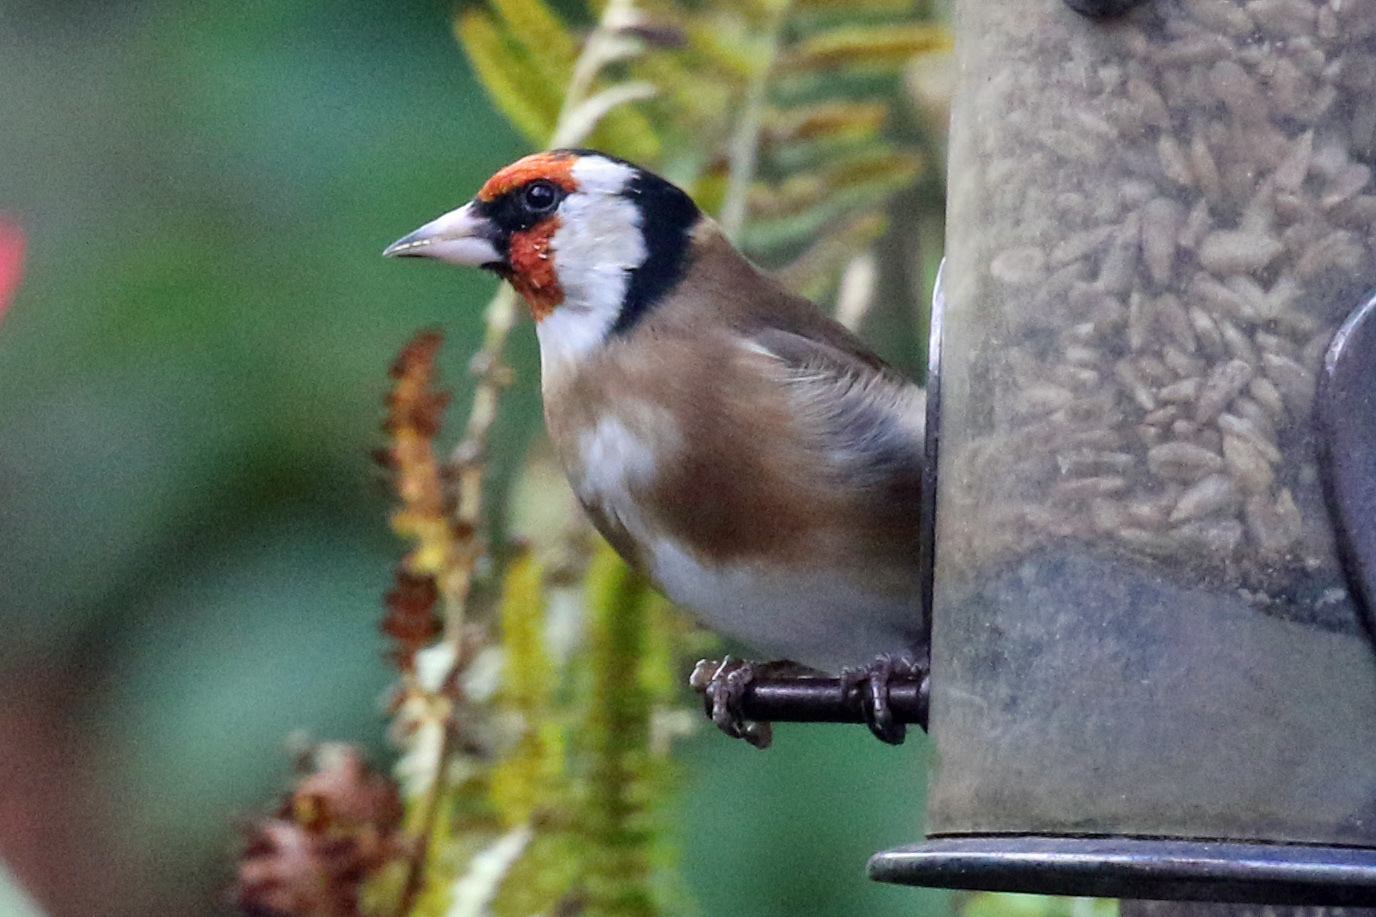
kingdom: Animalia
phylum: Chordata
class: Aves
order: Passeriformes
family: Fringillidae
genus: Carduelis
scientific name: Carduelis carduelis
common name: European goldfinch
